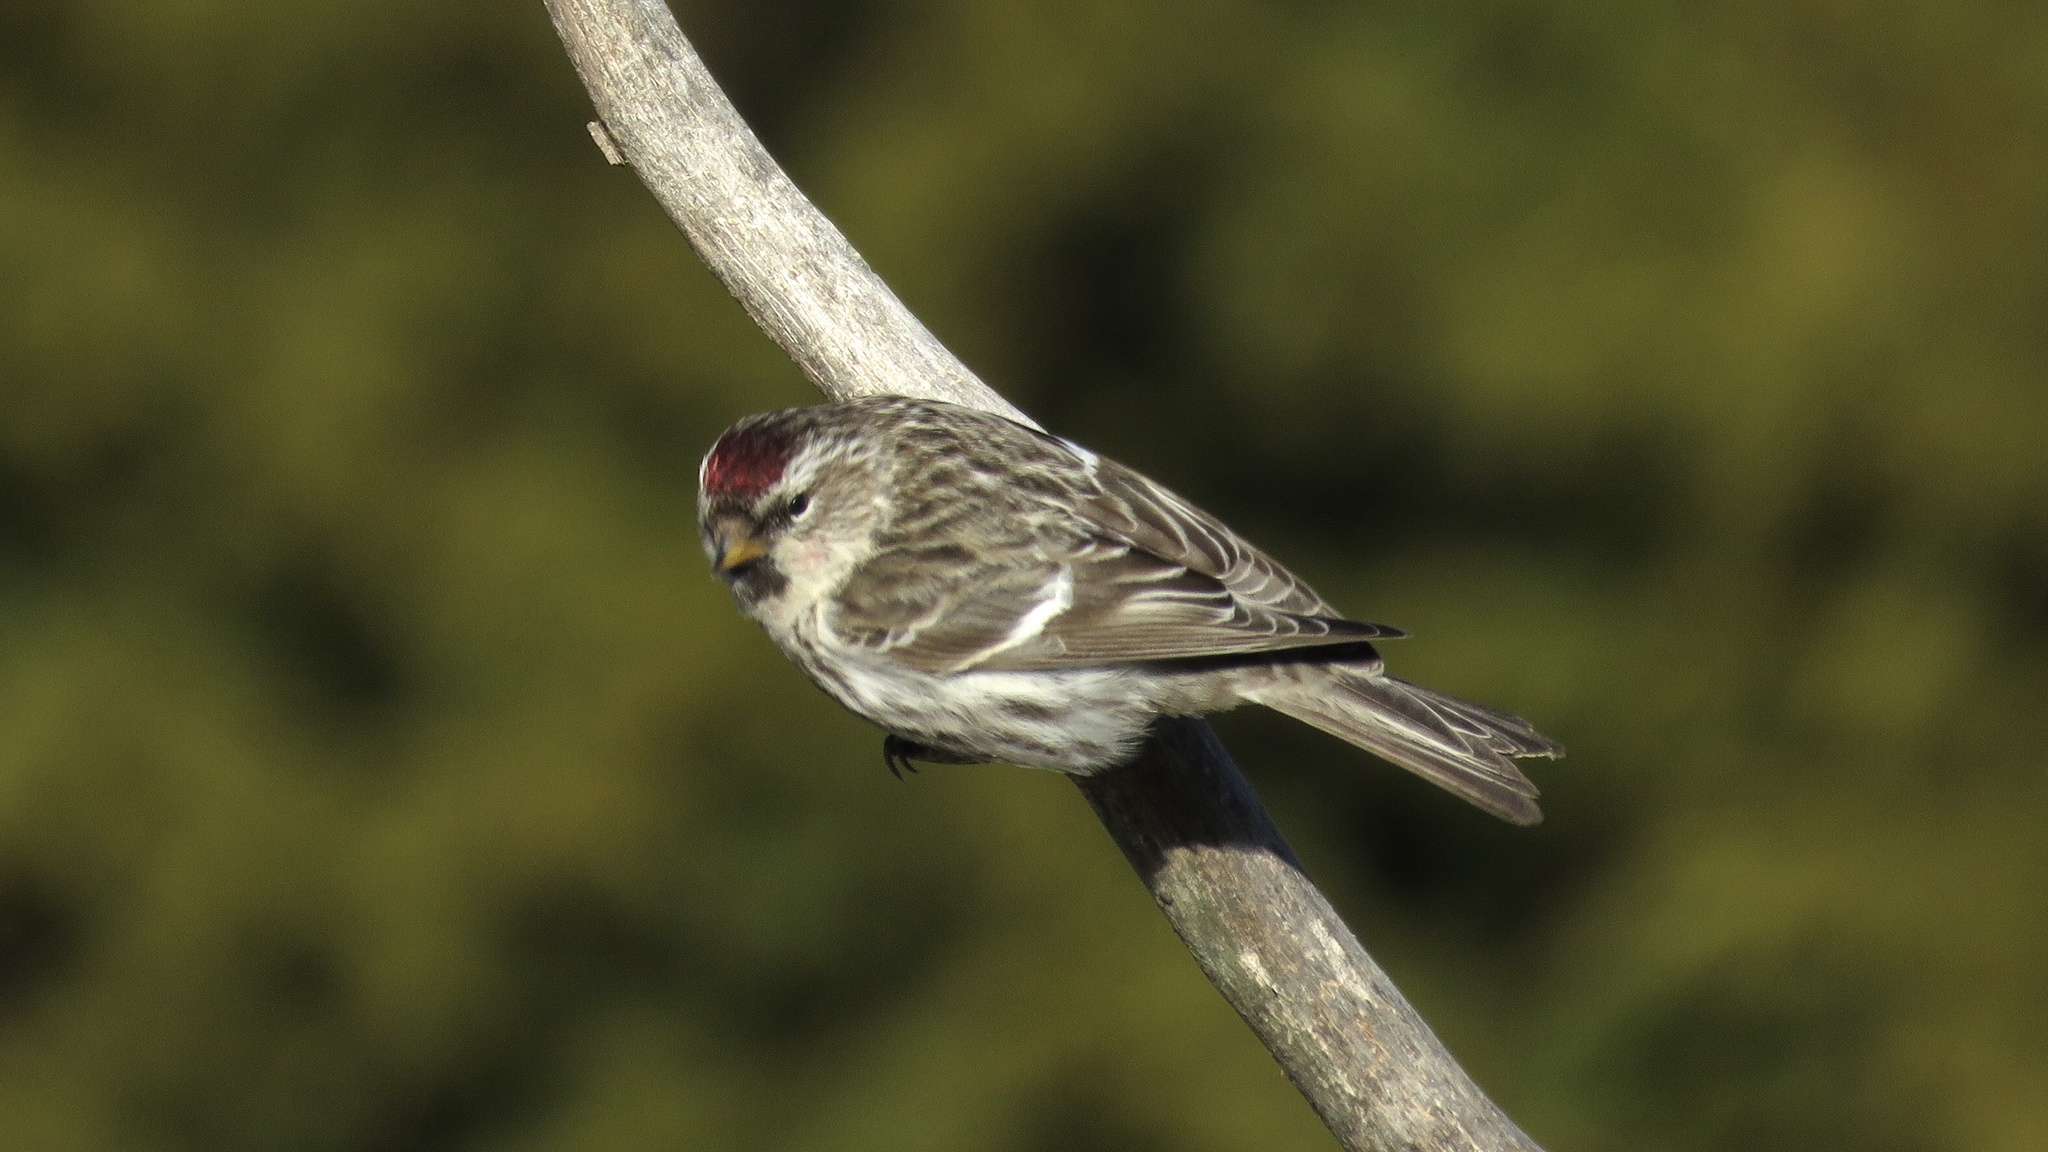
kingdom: Animalia
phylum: Chordata
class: Aves
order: Passeriformes
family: Fringillidae
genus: Acanthis
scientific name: Acanthis flammea
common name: Common redpoll
